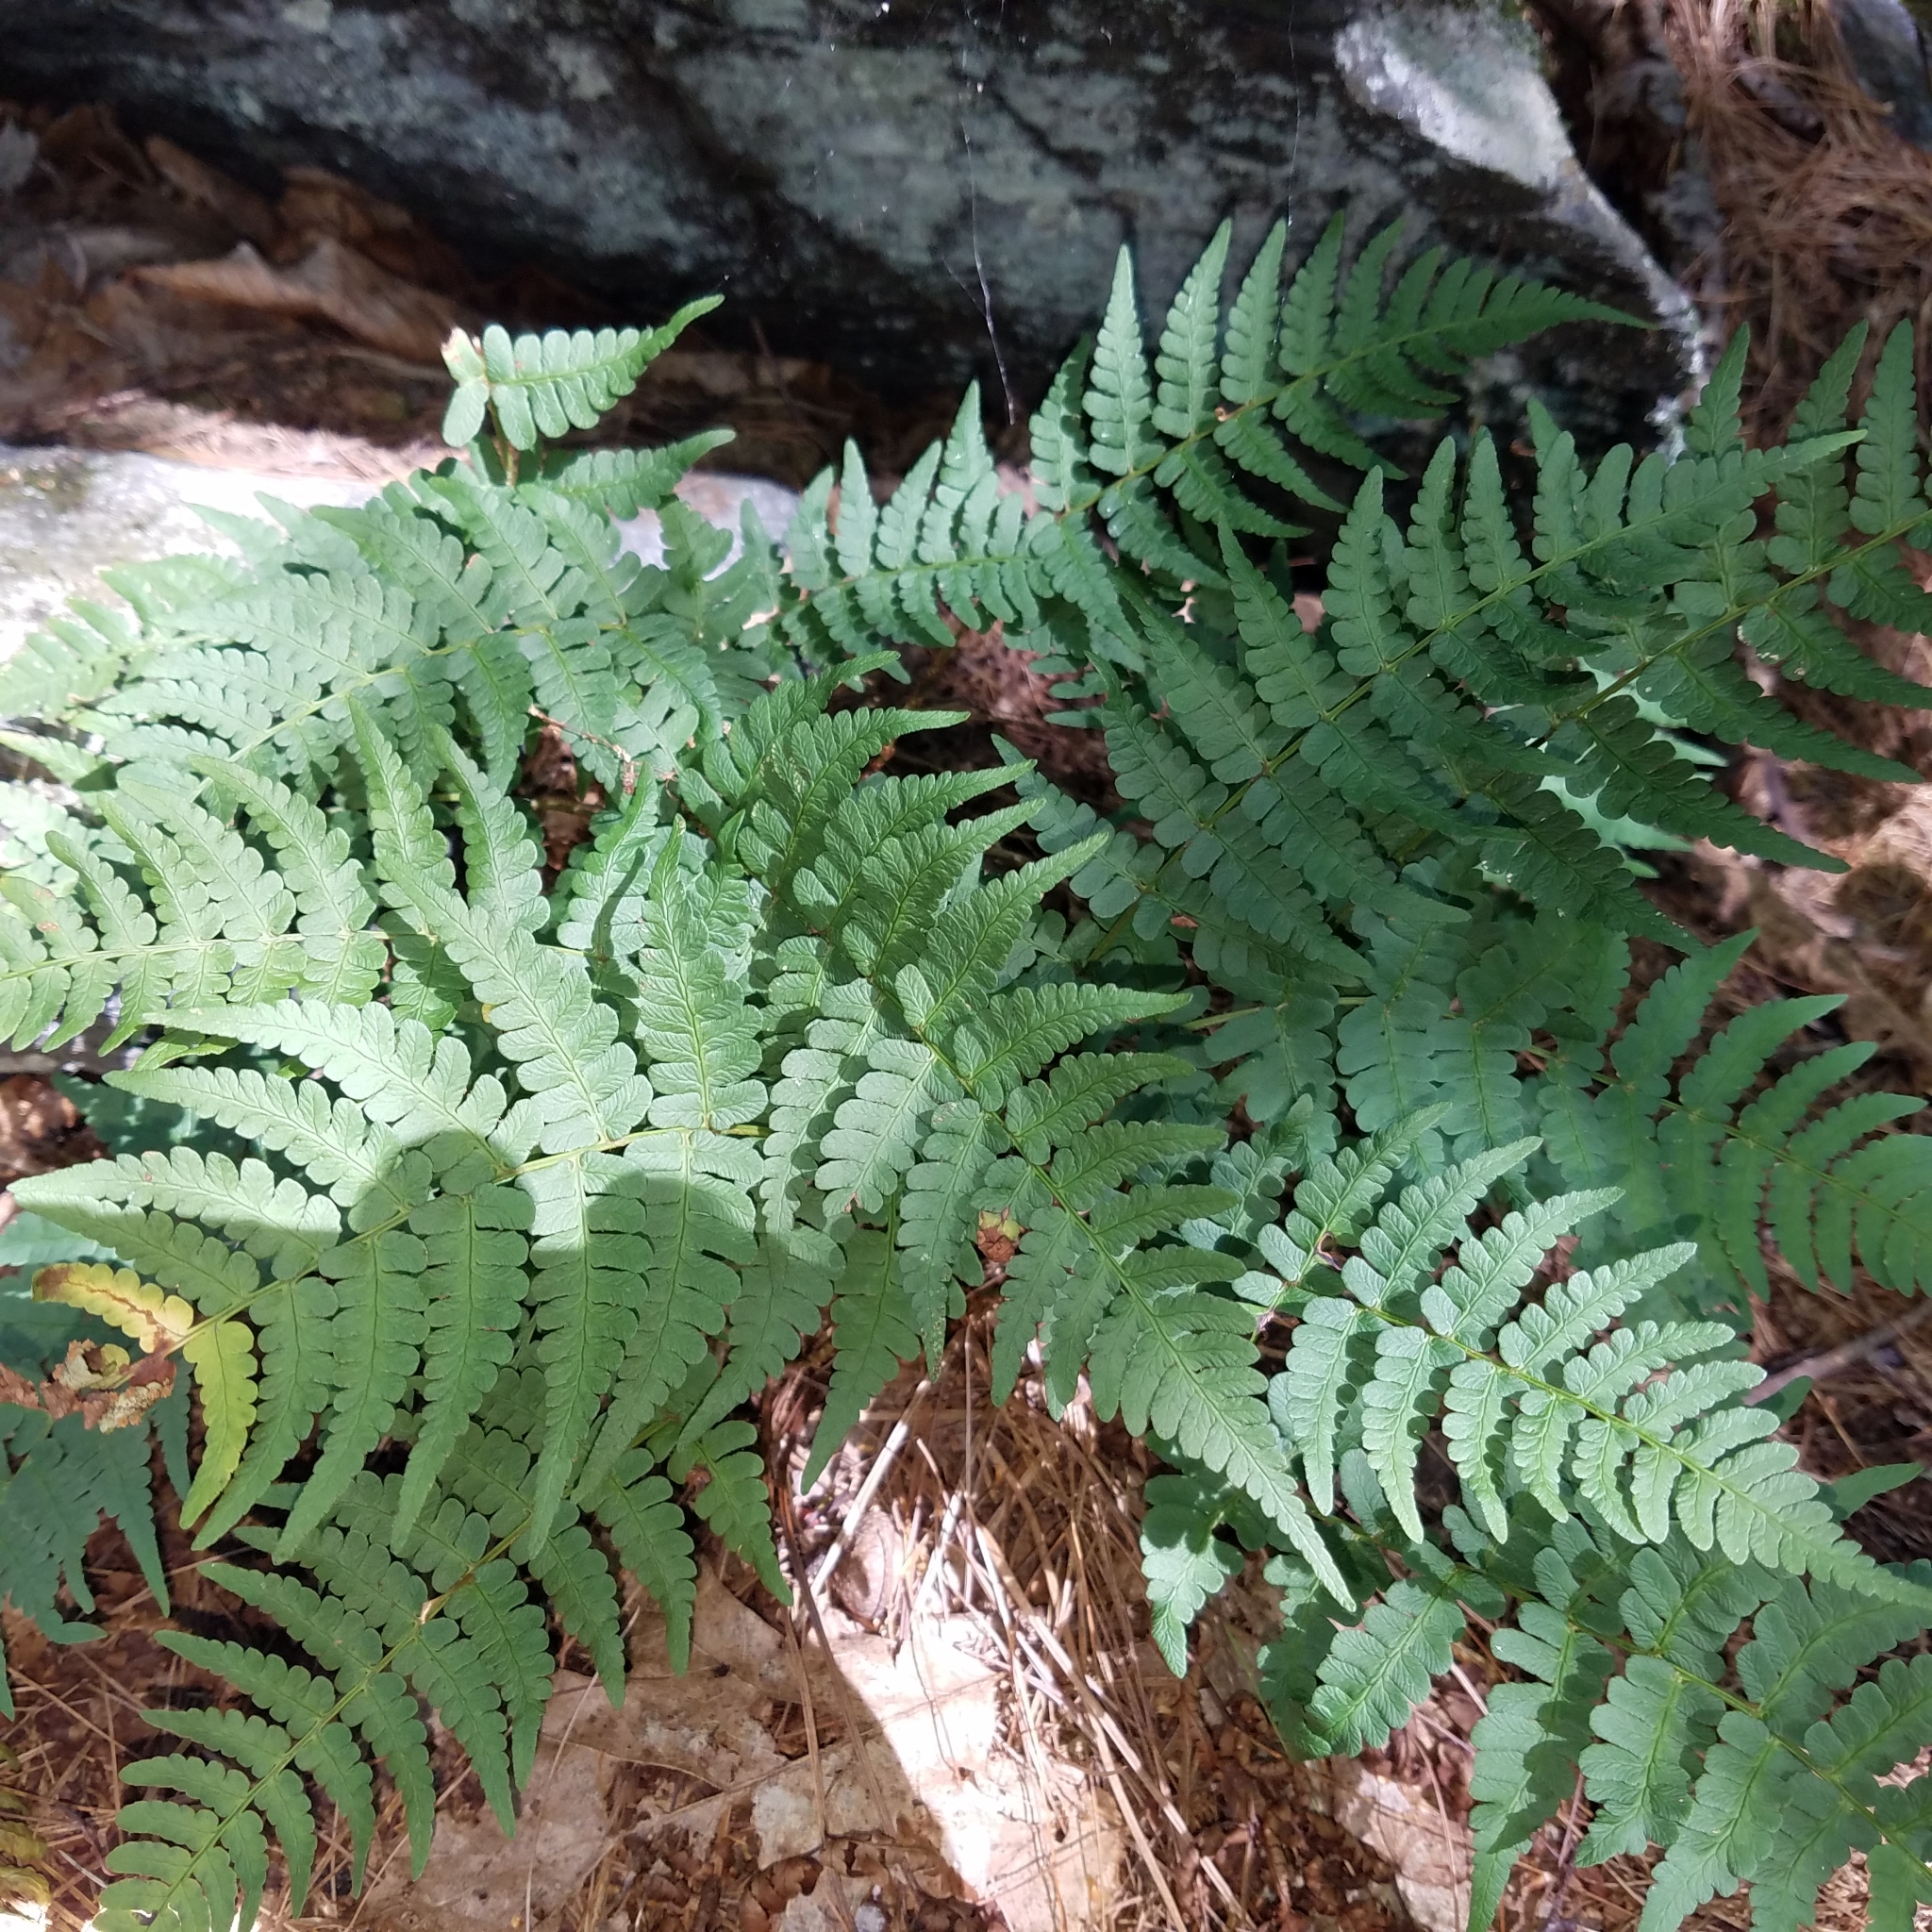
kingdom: Plantae
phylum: Tracheophyta
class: Polypodiopsida
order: Polypodiales
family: Dryopteridaceae
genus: Dryopteris
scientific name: Dryopteris marginalis
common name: Marginal wood fern
